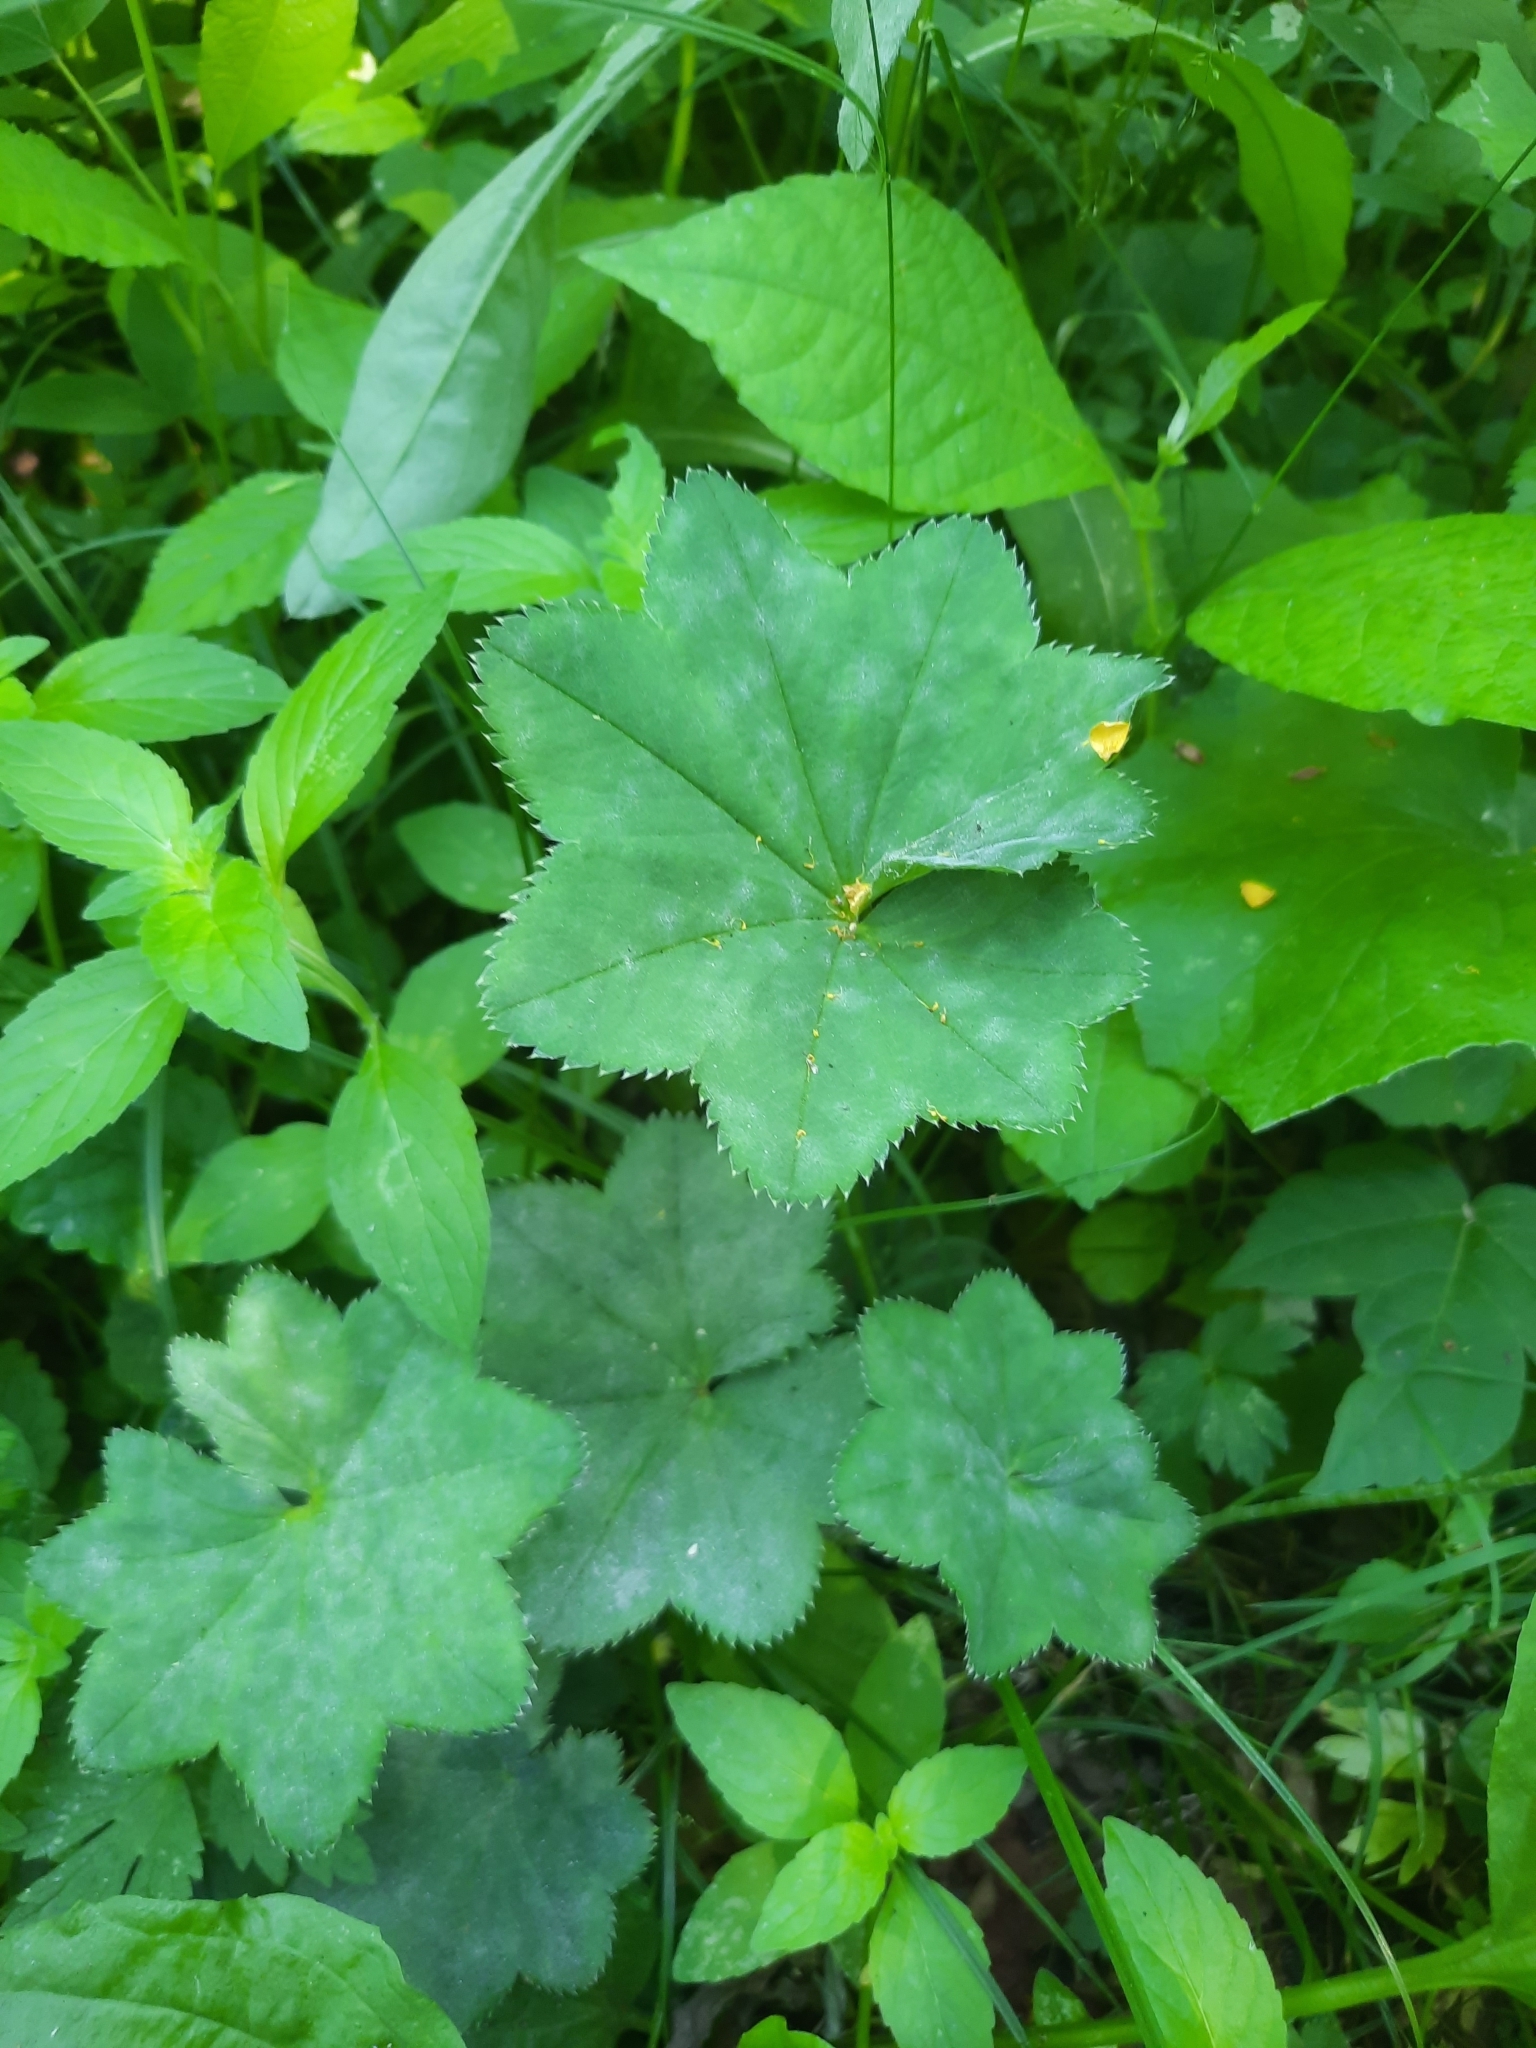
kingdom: Plantae
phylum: Tracheophyta
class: Magnoliopsida
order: Rosales
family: Rosaceae
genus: Alchemilla
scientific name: Alchemilla
